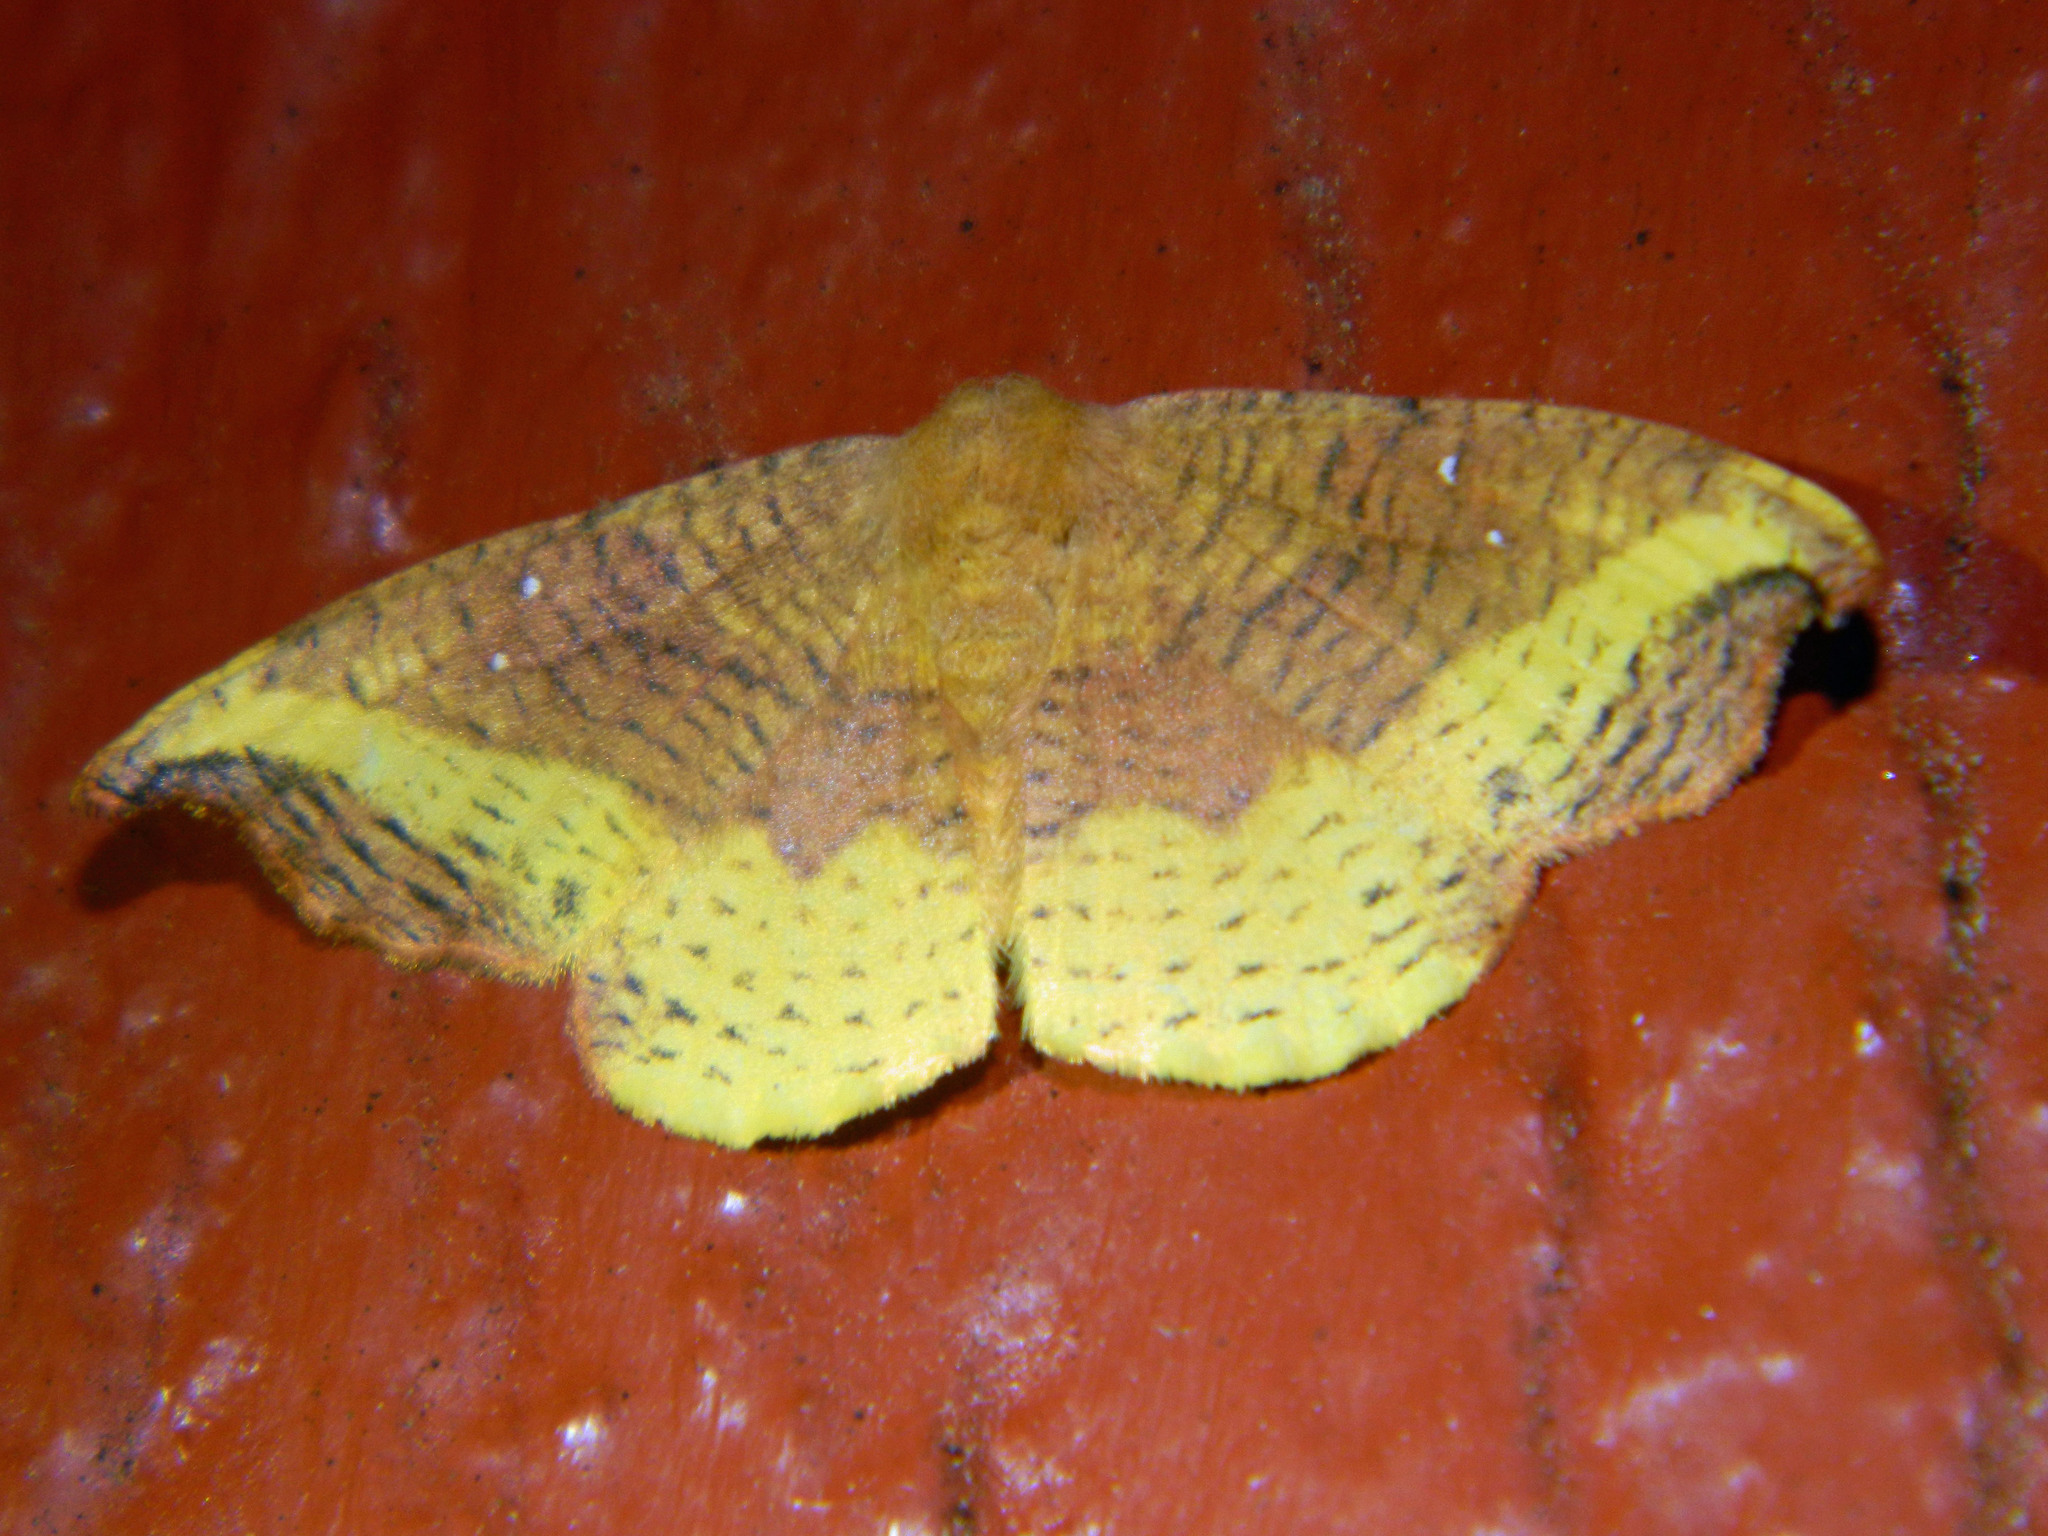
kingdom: Animalia
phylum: Arthropoda
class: Insecta
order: Lepidoptera
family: Drepanidae
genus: Oreta
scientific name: Oreta rosea
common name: Rose hooktip
